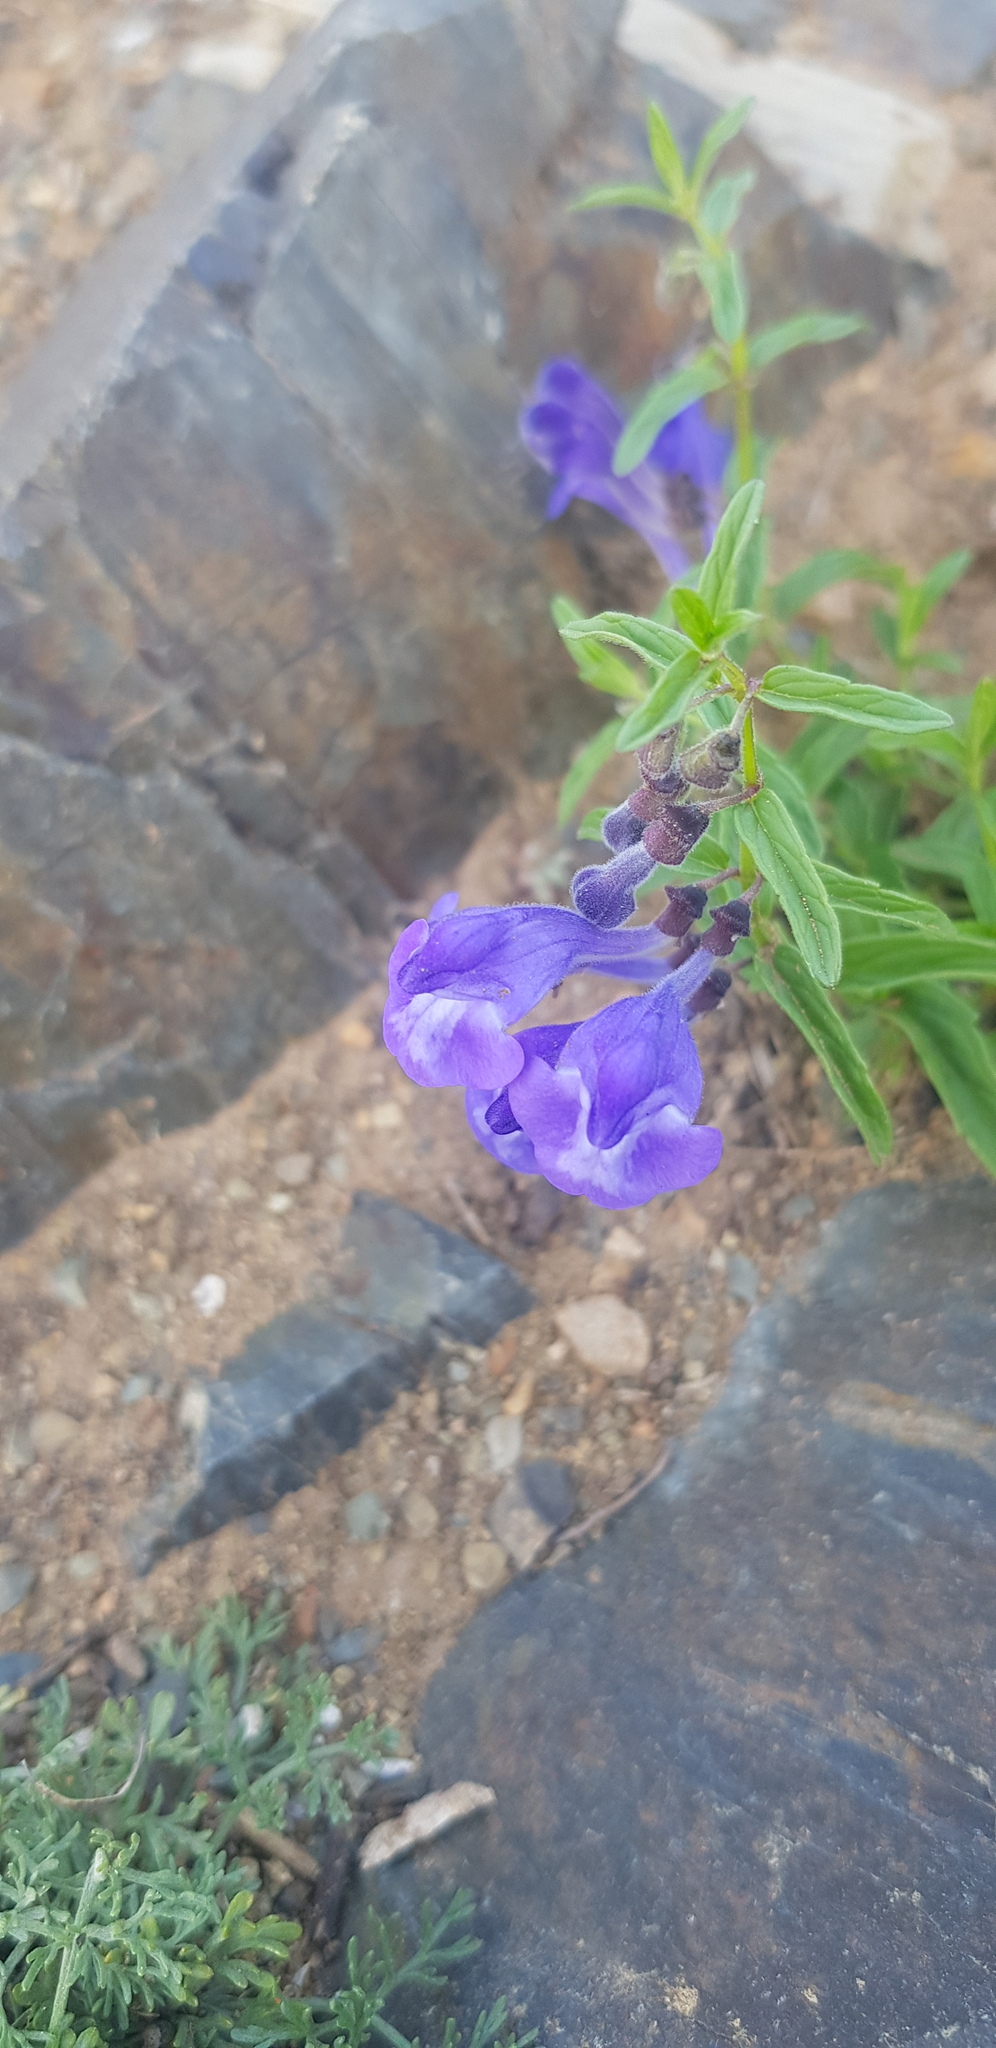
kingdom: Plantae
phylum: Tracheophyta
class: Magnoliopsida
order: Lamiales
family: Lamiaceae
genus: Scutellaria
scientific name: Scutellaria scordiifolia
